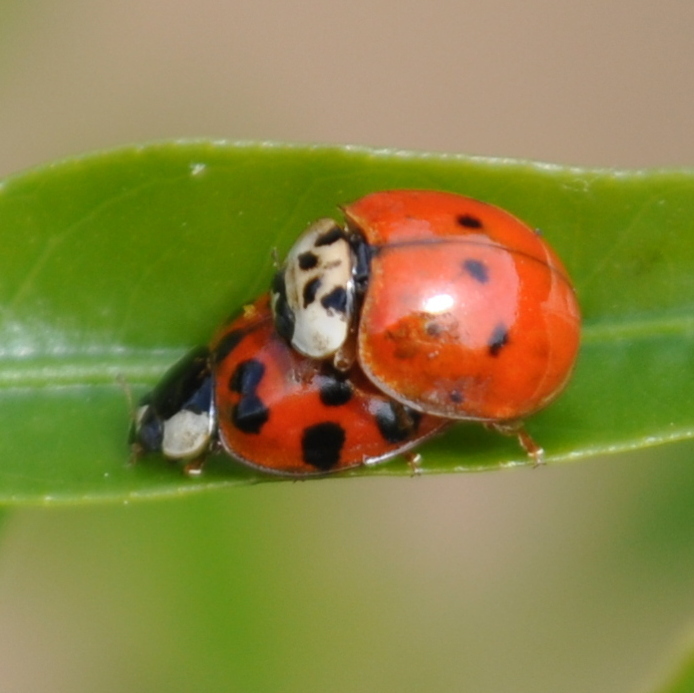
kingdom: Animalia
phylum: Arthropoda
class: Insecta
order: Coleoptera
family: Coccinellidae
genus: Harmonia
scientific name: Harmonia axyridis
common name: Harlequin ladybird
